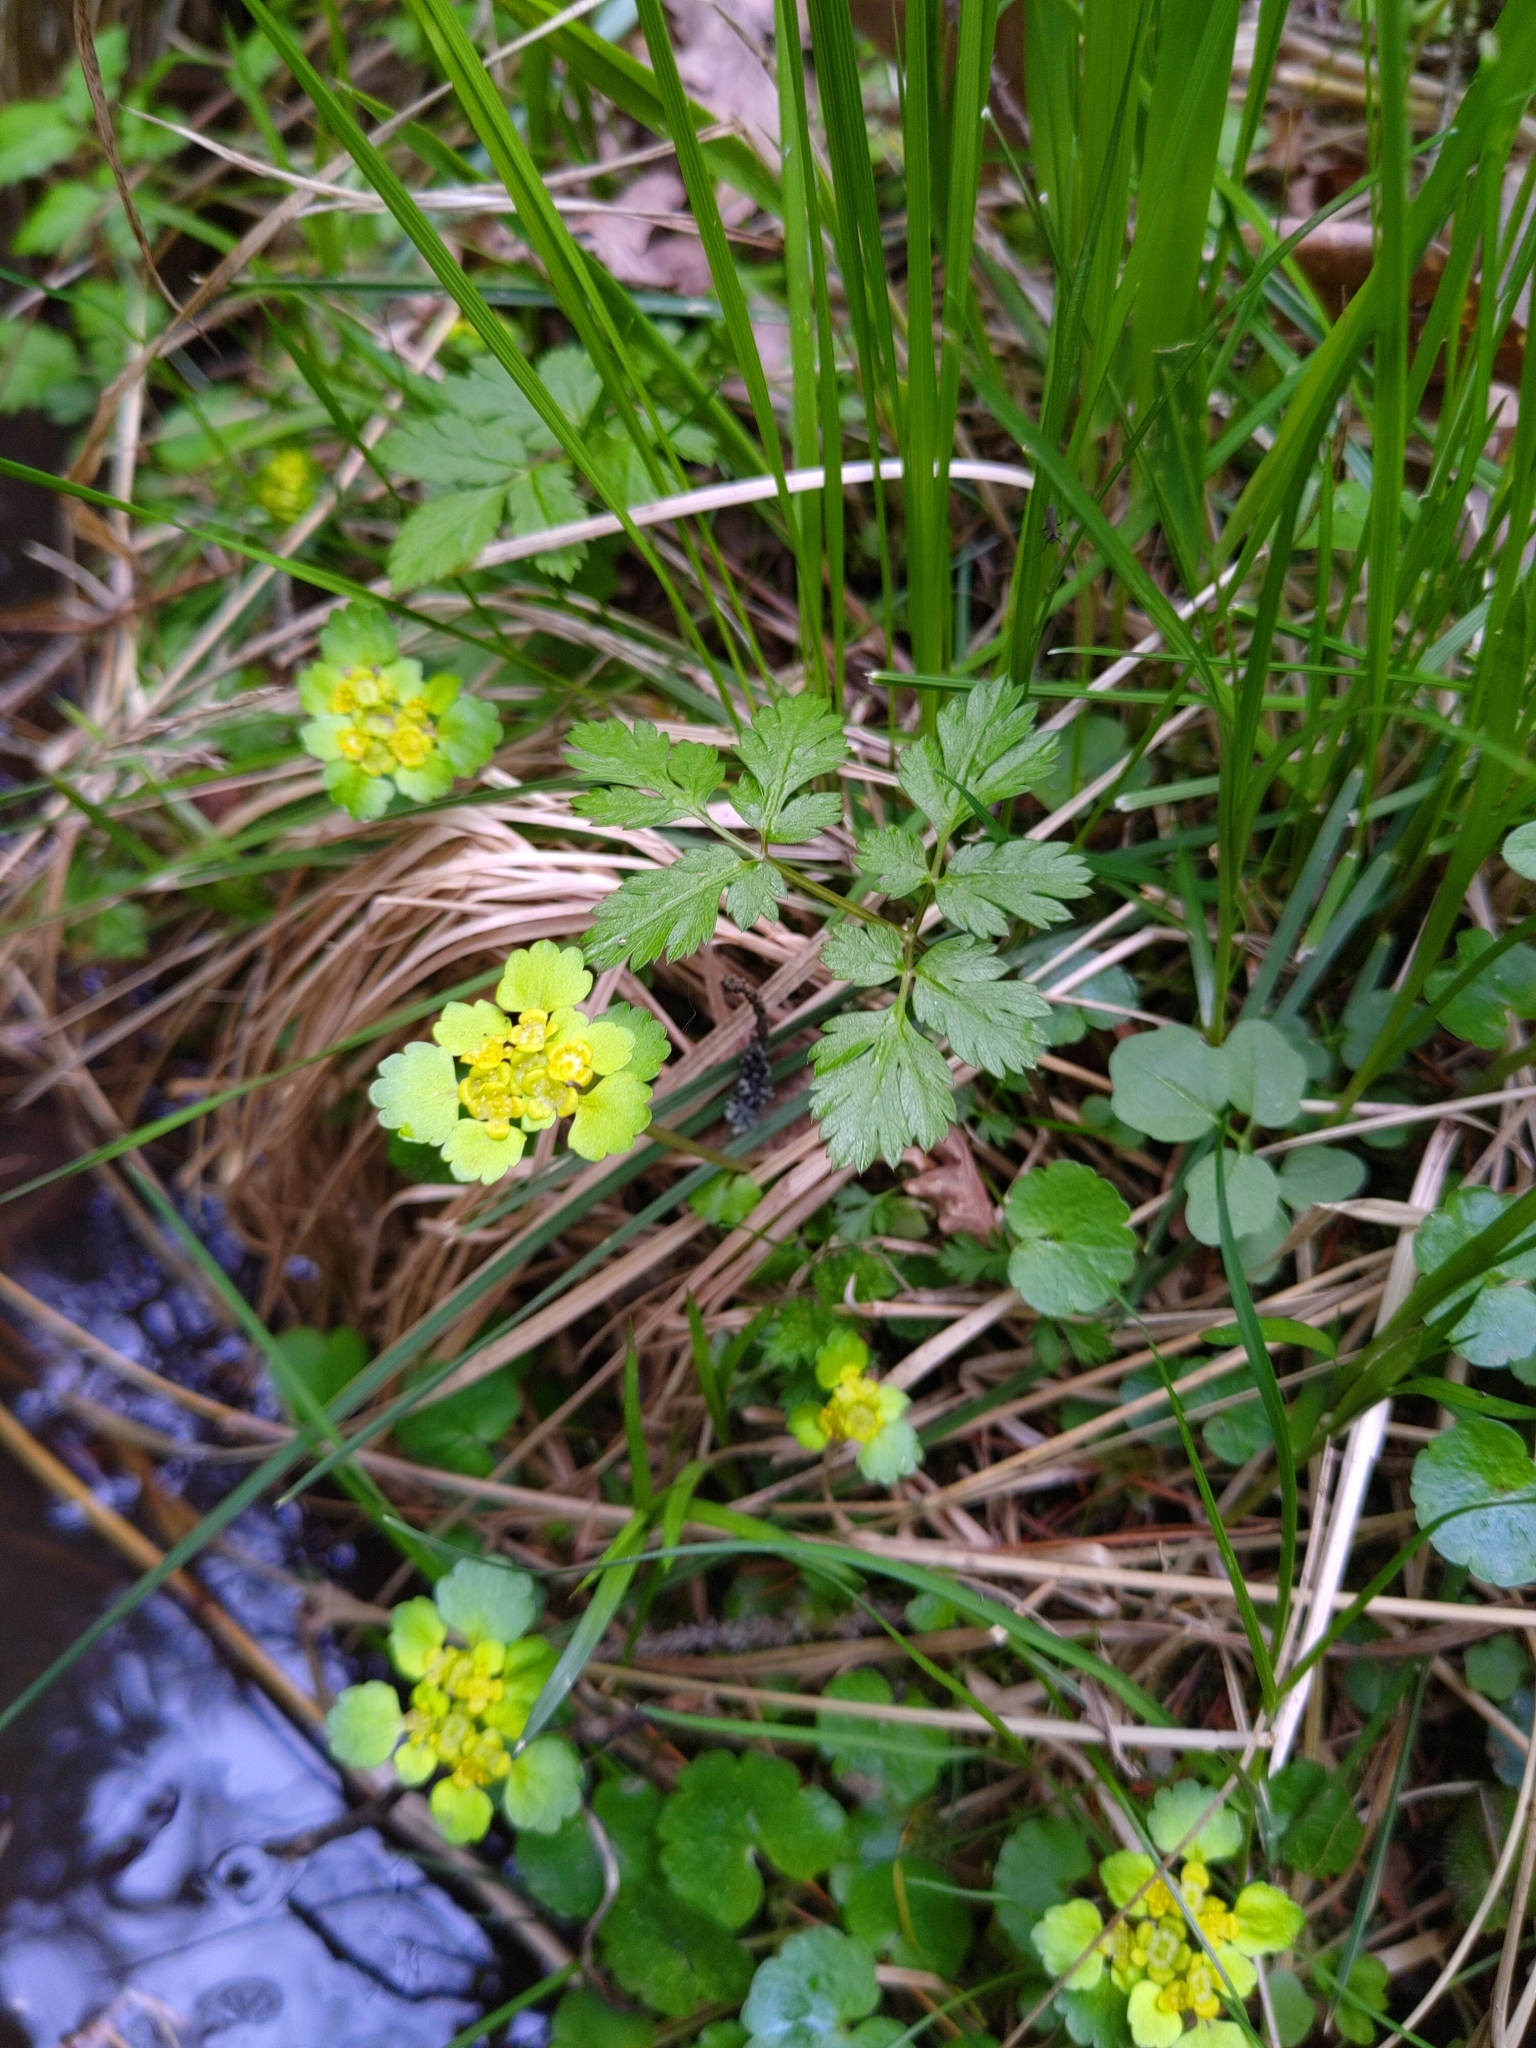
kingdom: Plantae
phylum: Tracheophyta
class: Magnoliopsida
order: Saxifragales
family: Saxifragaceae
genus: Chrysosplenium
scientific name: Chrysosplenium alternifolium
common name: Alternate-leaved golden-saxifrage
